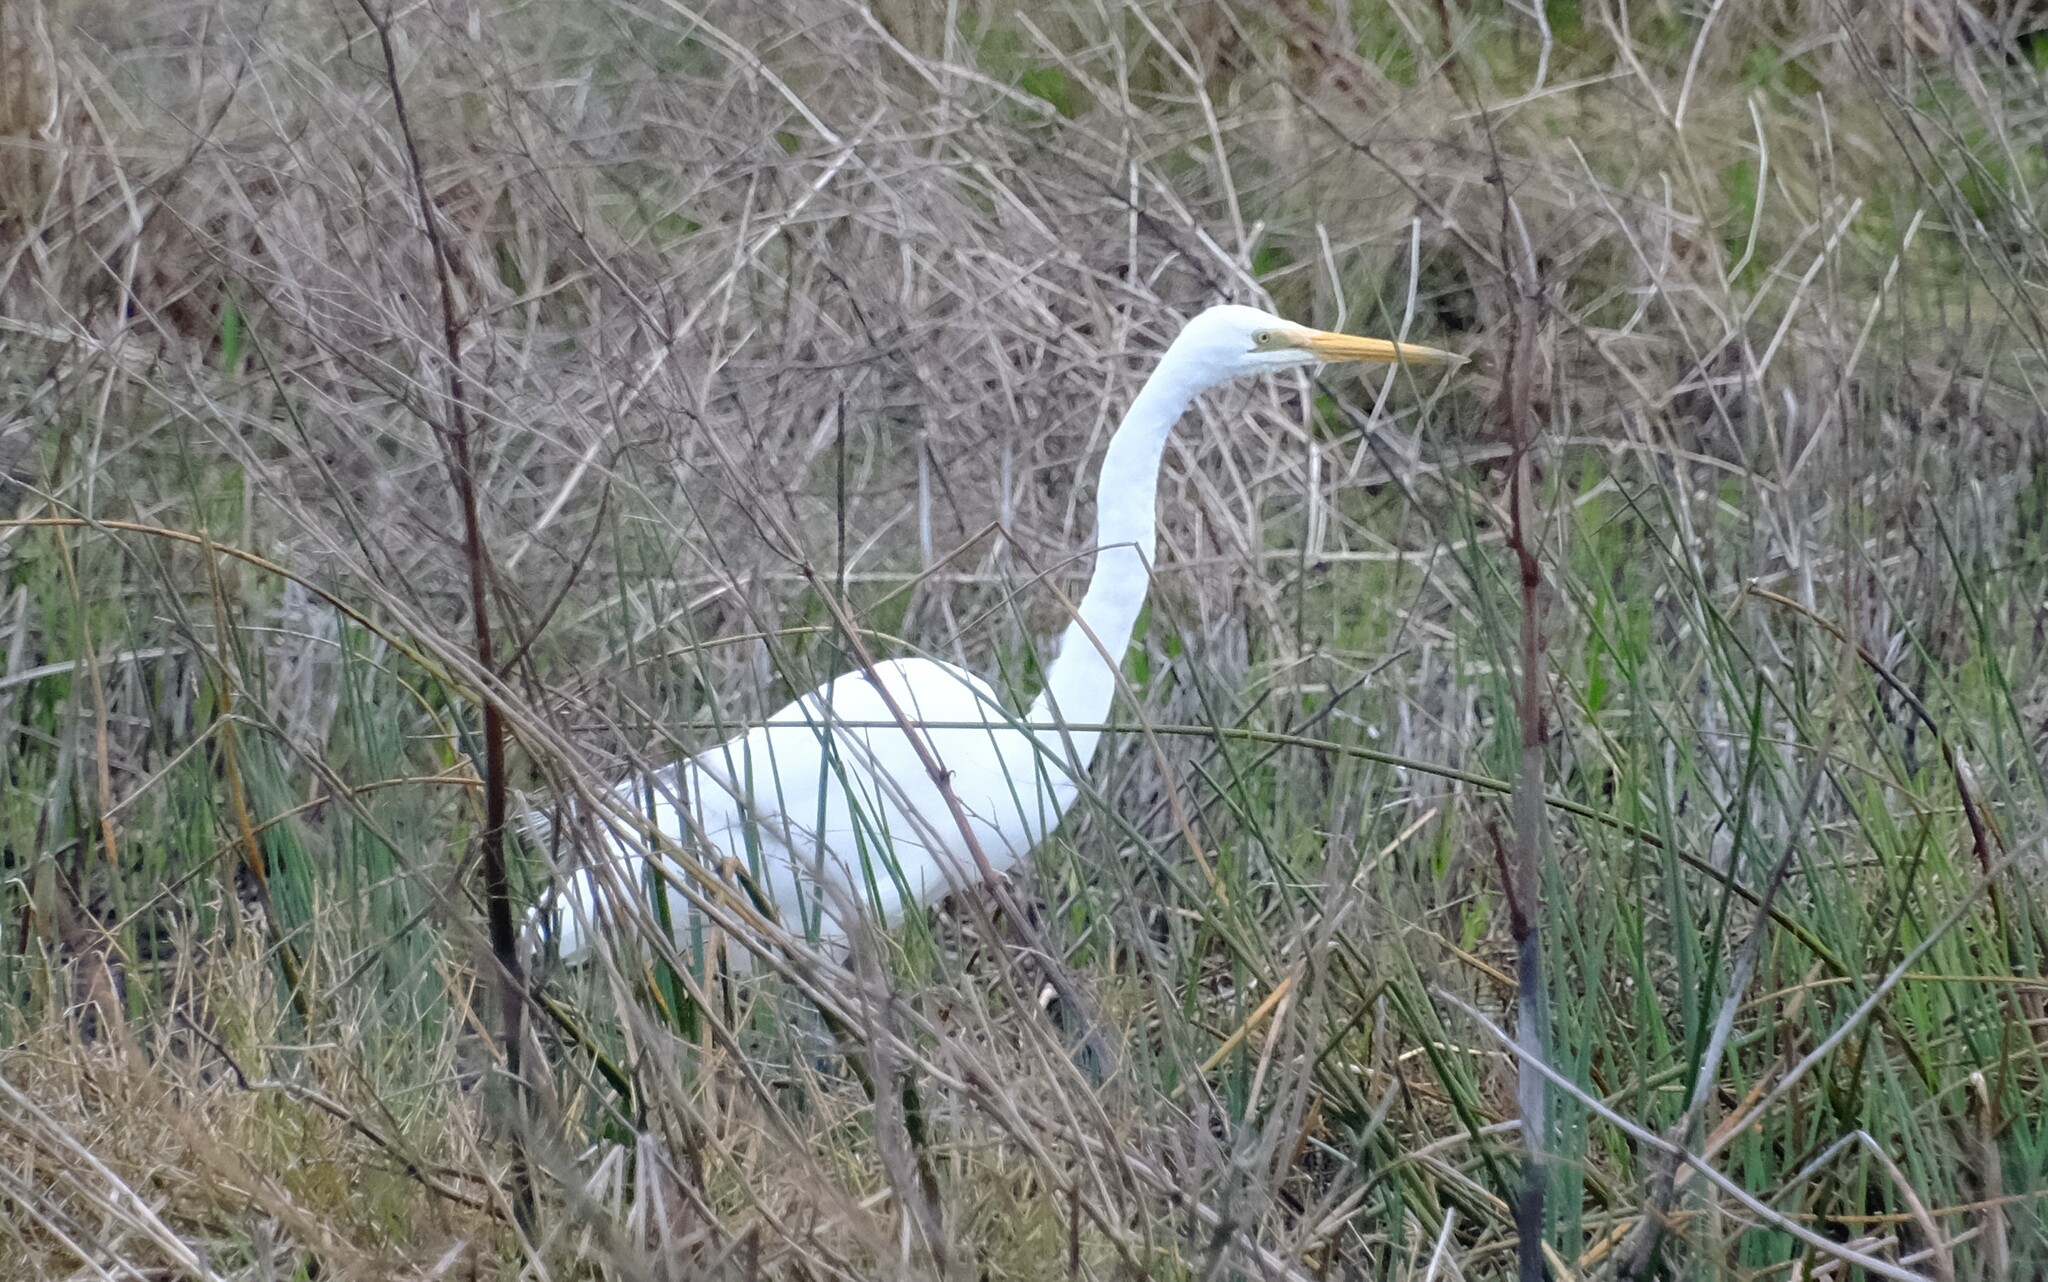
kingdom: Animalia
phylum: Chordata
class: Aves
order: Pelecaniformes
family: Ardeidae
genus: Ardea
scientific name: Ardea alba
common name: Great egret
